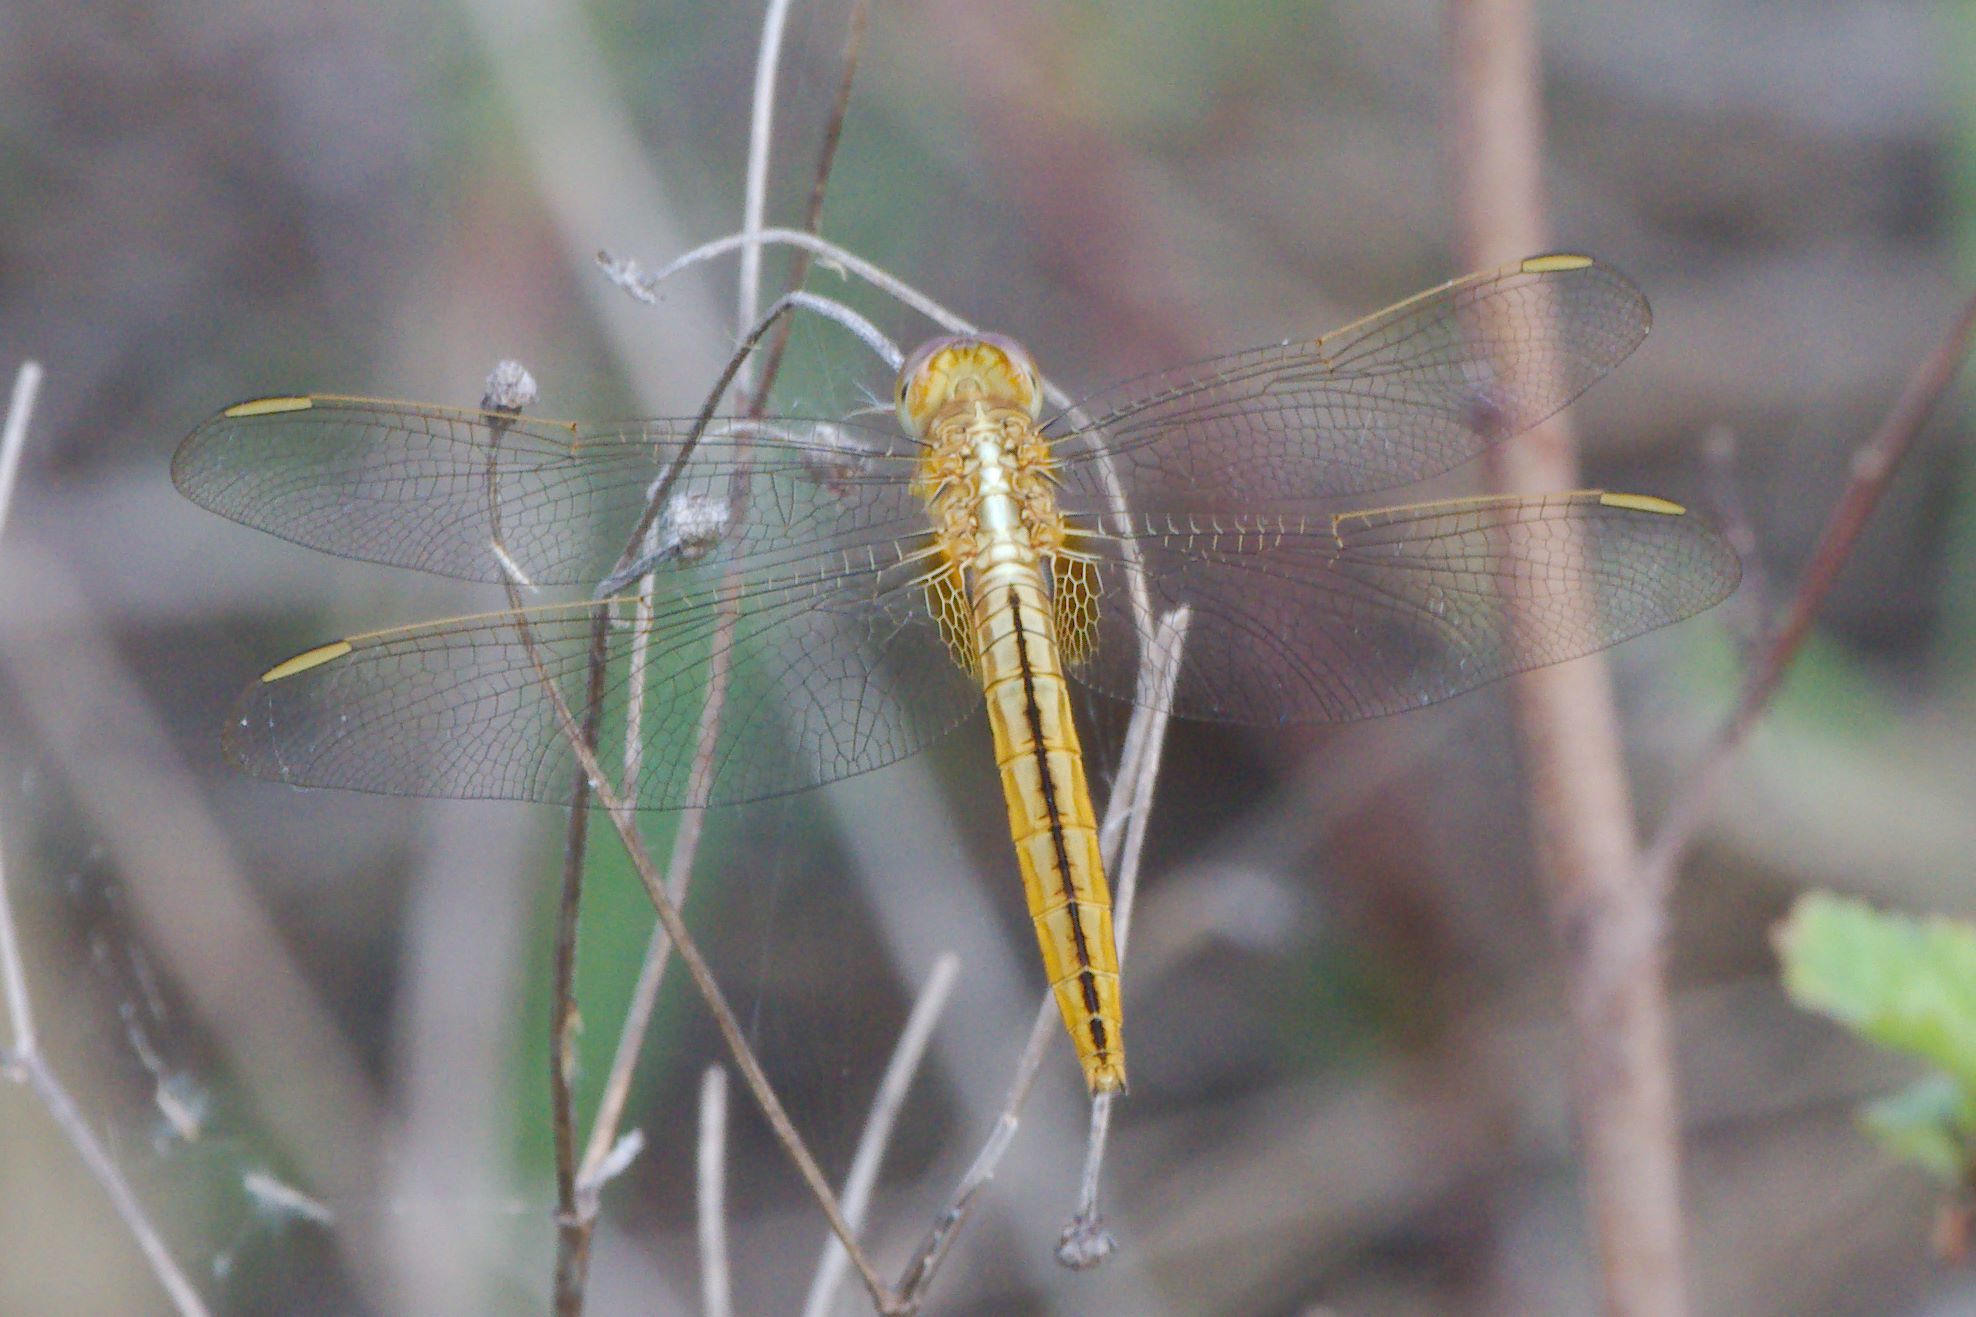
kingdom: Animalia
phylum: Arthropoda
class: Insecta
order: Odonata
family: Libellulidae
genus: Crocothemis
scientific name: Crocothemis servilia
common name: Scarlet skimmer
